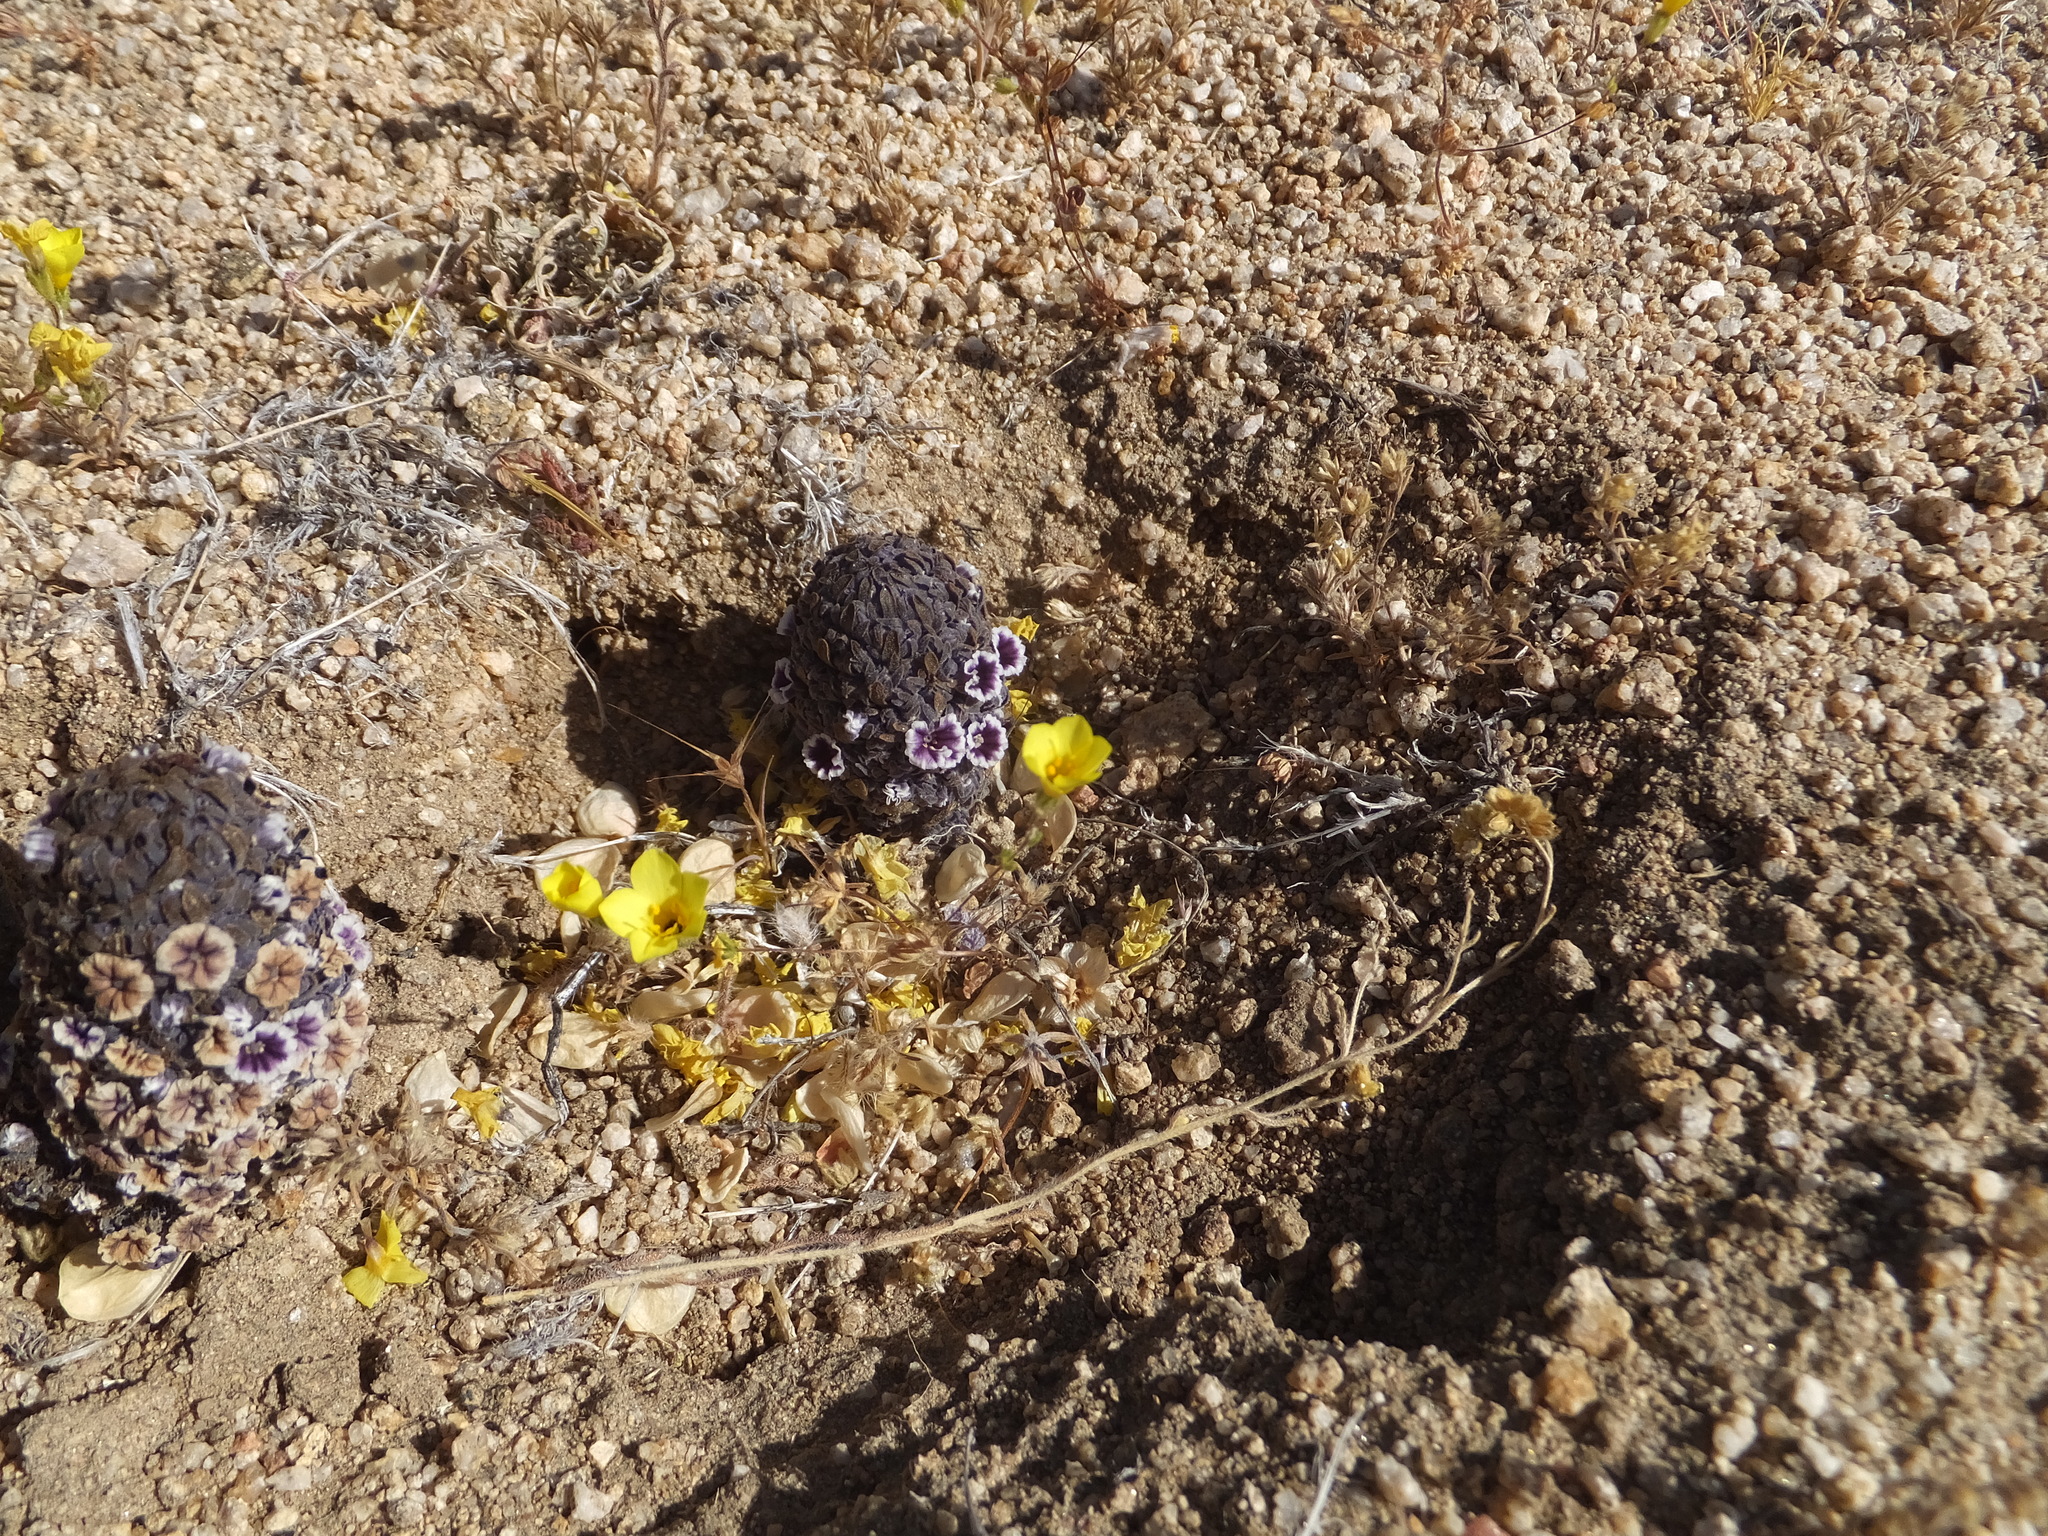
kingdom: Plantae
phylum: Tracheophyta
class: Magnoliopsida
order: Boraginales
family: Lennoaceae
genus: Pholisma
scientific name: Pholisma arenarium
